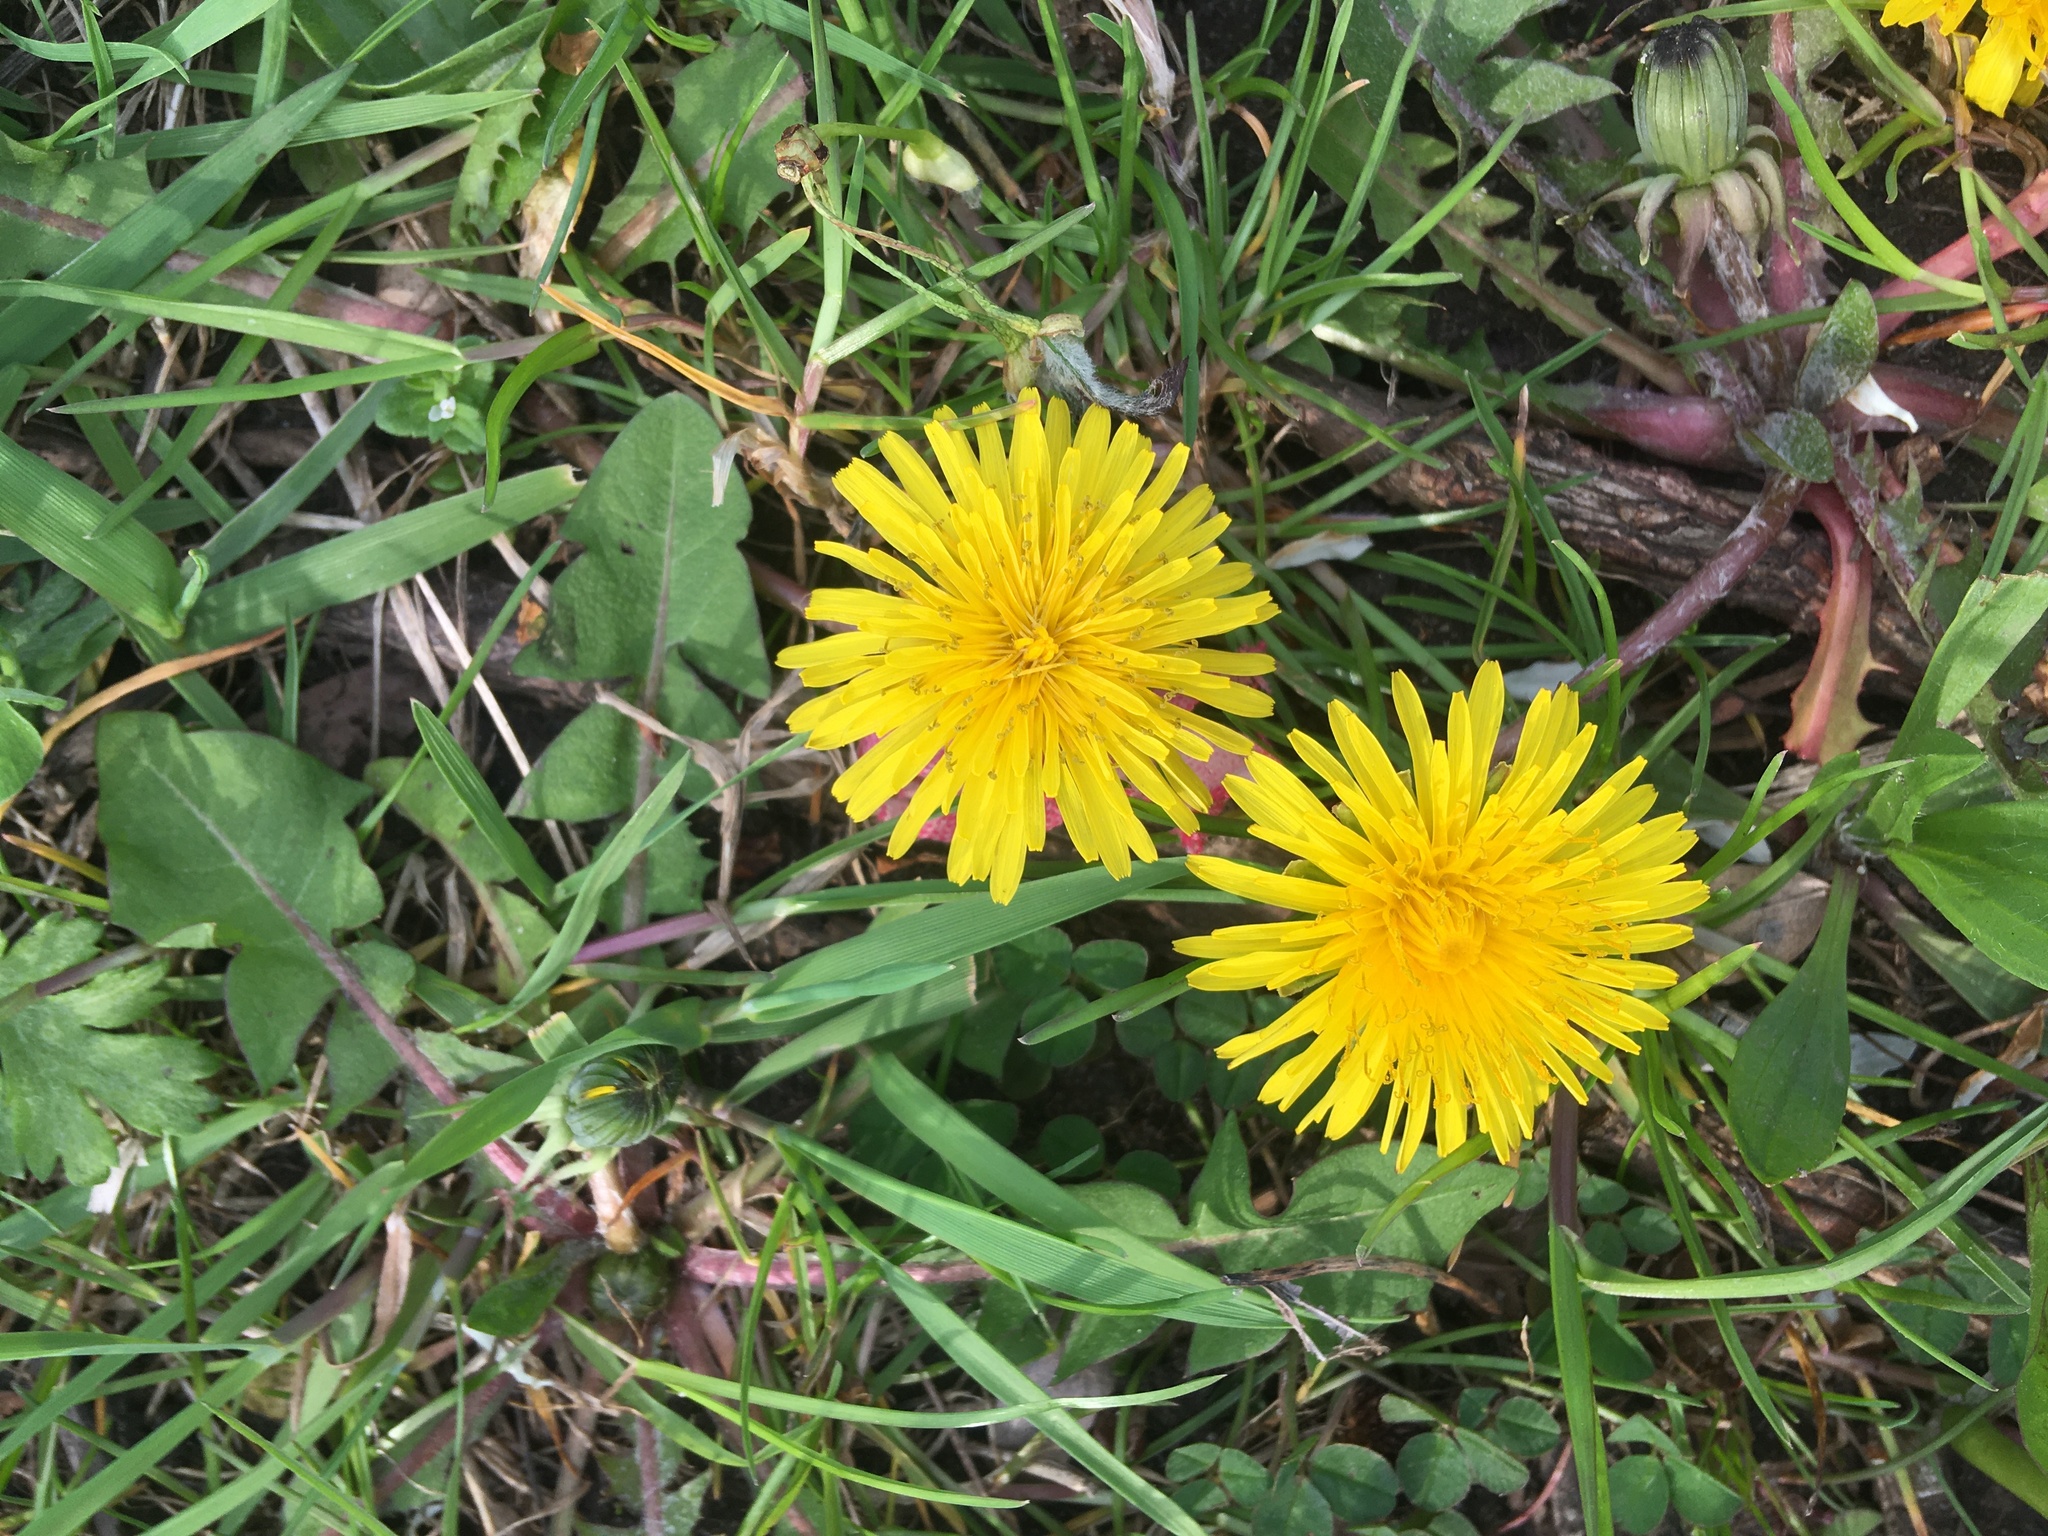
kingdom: Plantae
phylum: Tracheophyta
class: Magnoliopsida
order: Asterales
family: Asteraceae
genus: Taraxacum
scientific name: Taraxacum officinale
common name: Common dandelion
